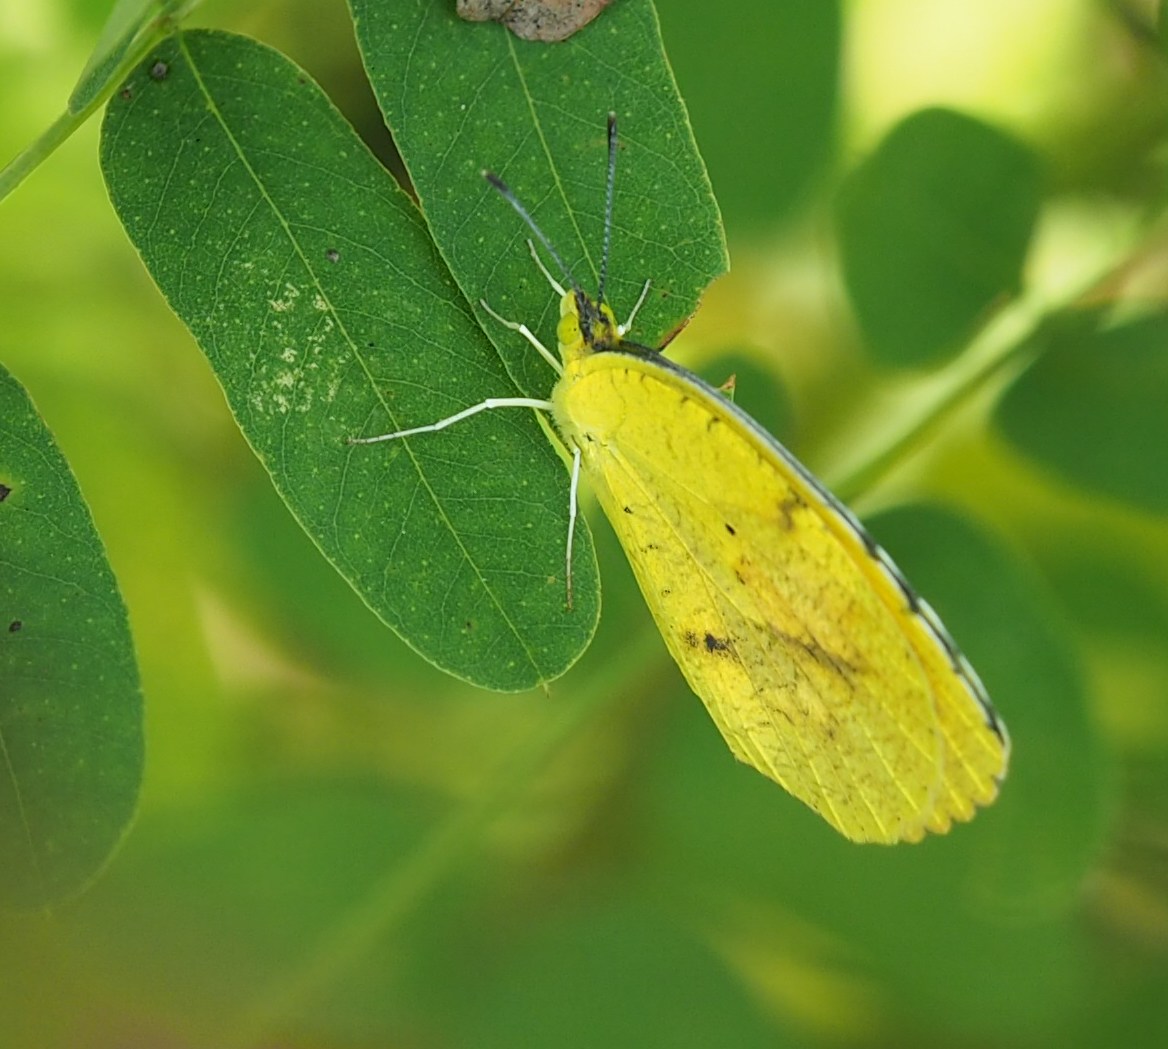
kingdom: Animalia
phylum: Arthropoda
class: Insecta
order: Lepidoptera
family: Pieridae
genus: Abaeis
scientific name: Abaeis nicippe
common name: Sleepy orange
